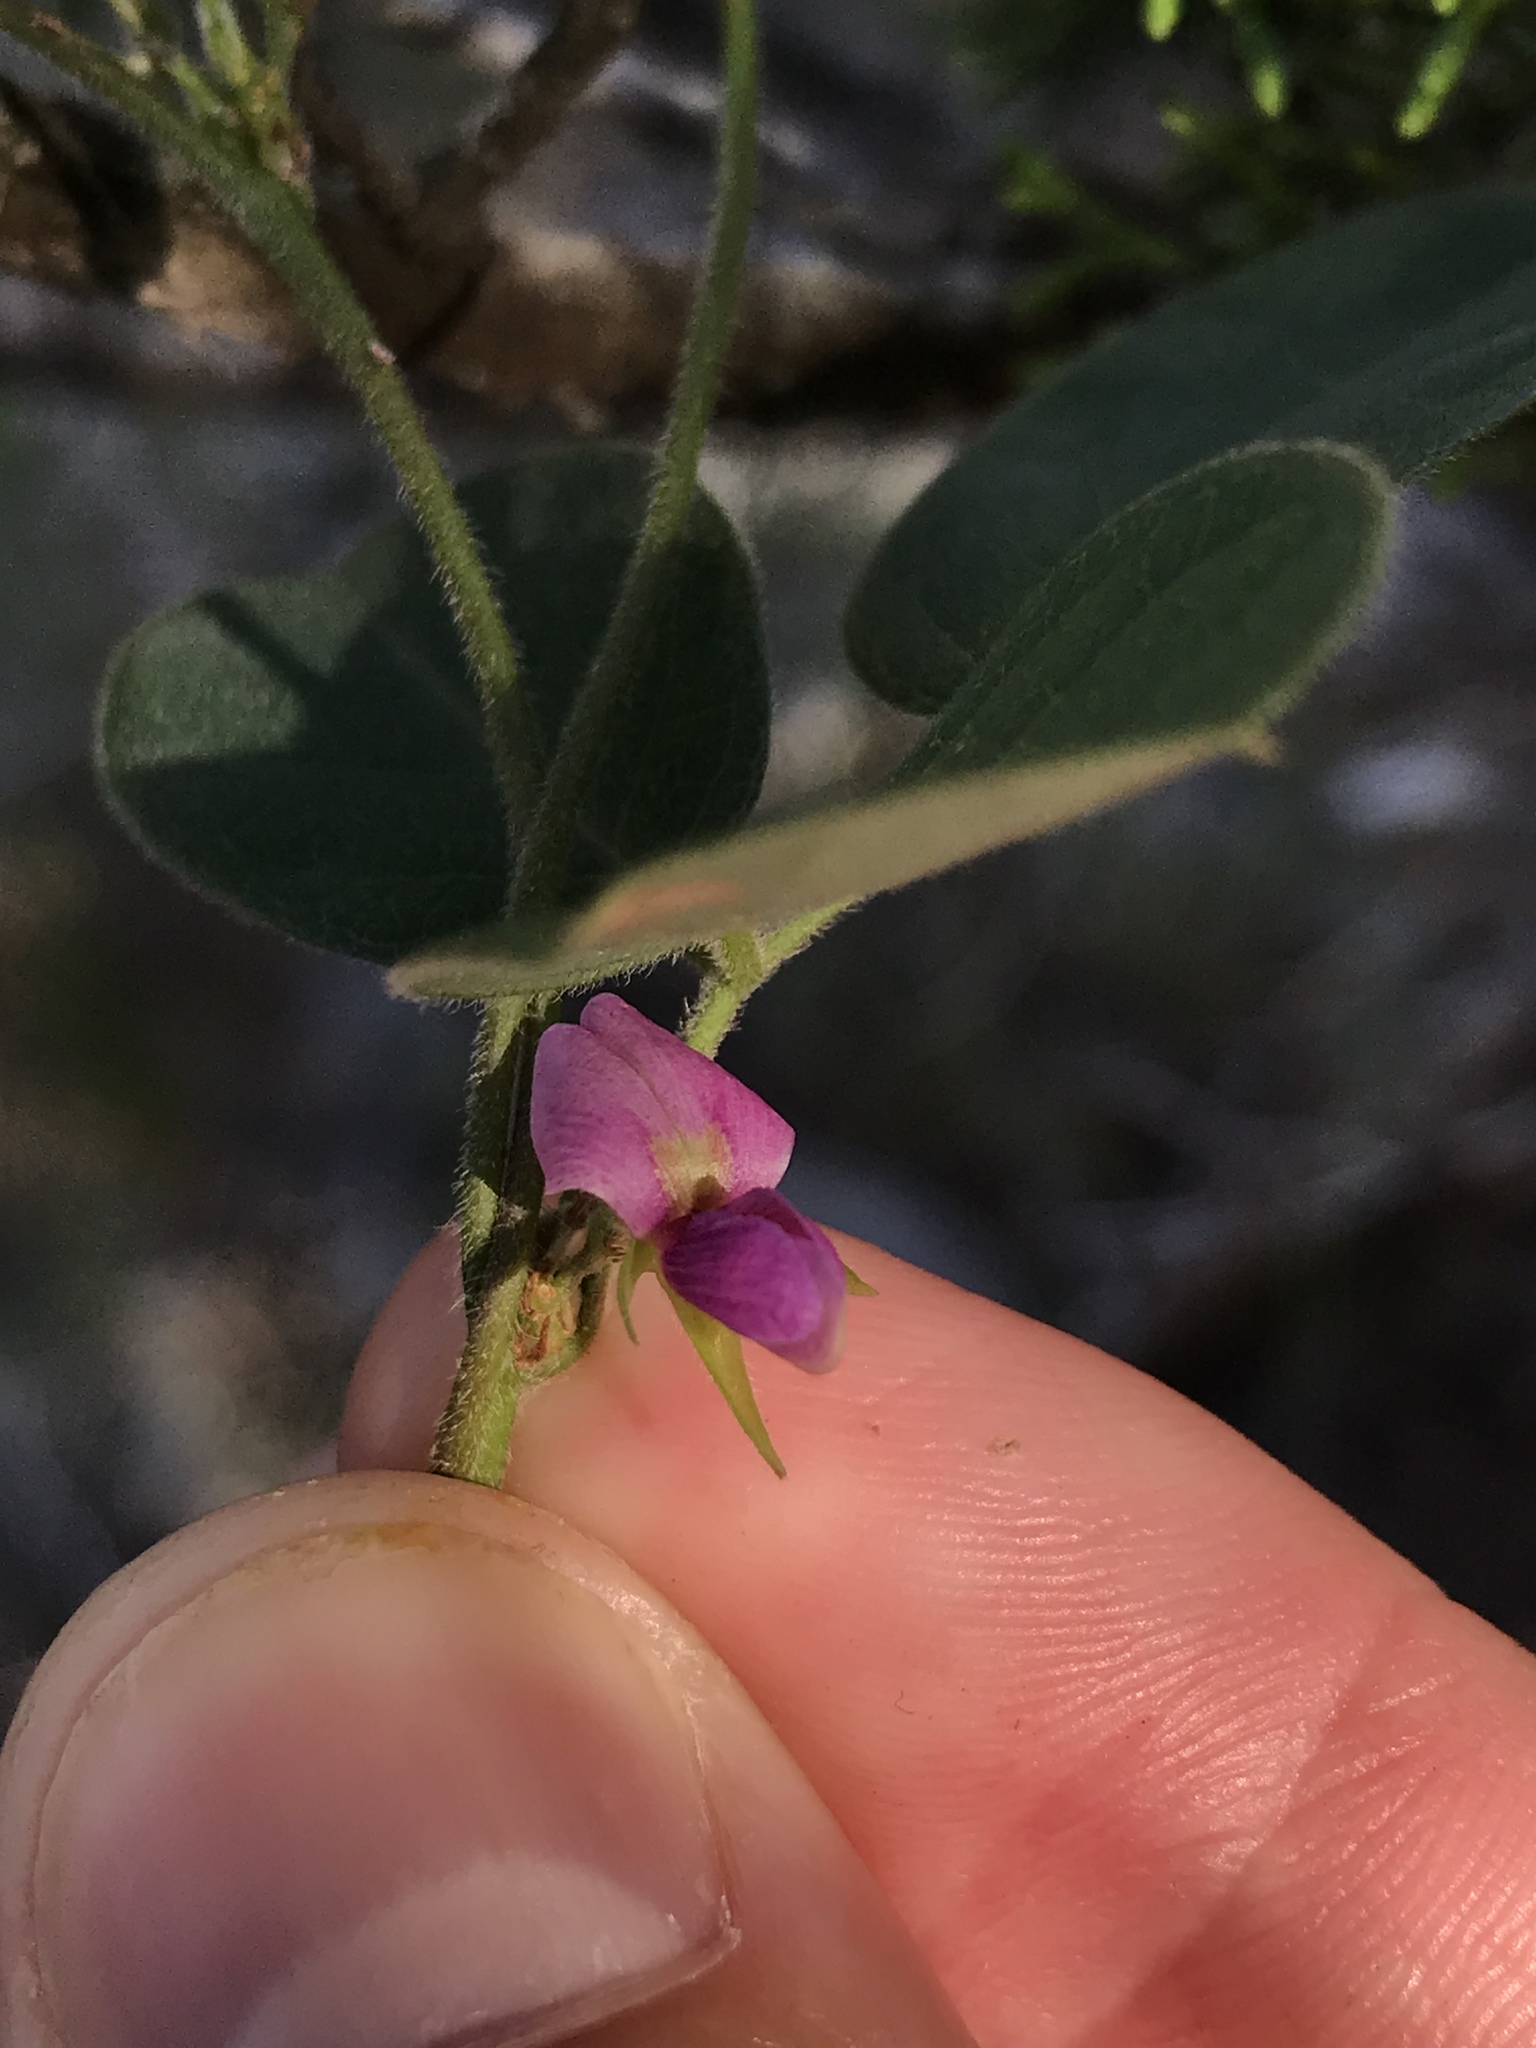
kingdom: Plantae
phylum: Tracheophyta
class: Magnoliopsida
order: Fabales
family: Fabaceae
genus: Galactia
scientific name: Galactia regularis
